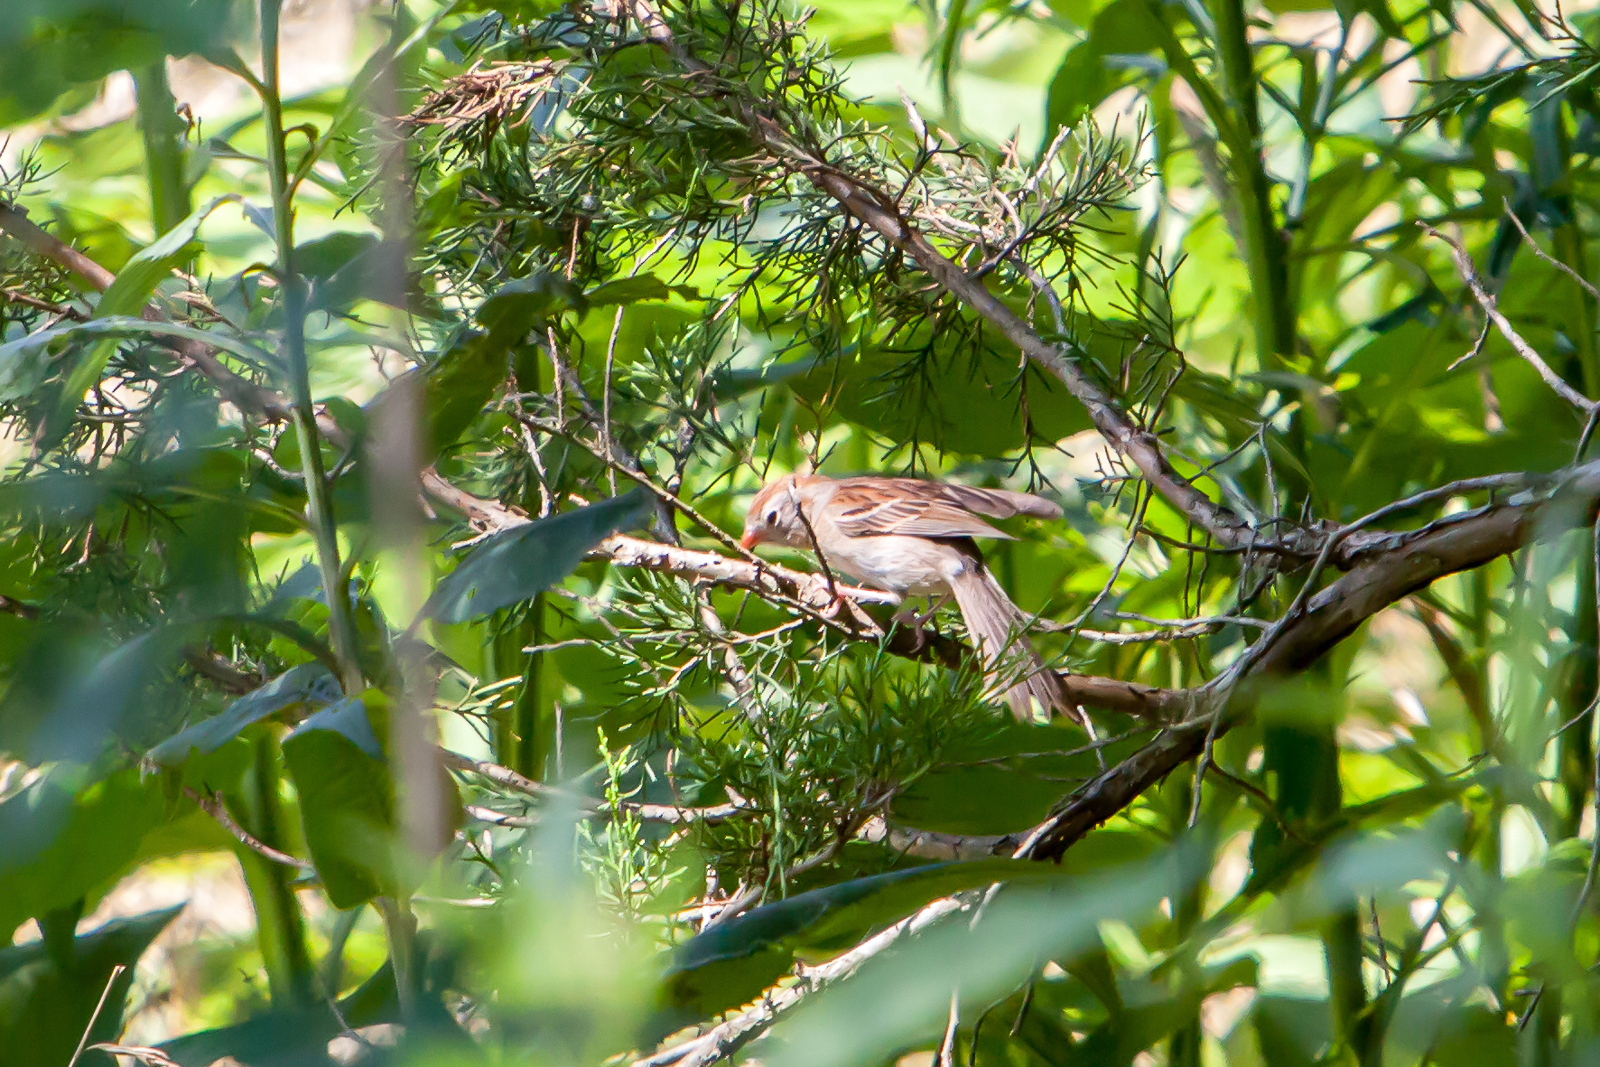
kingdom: Animalia
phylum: Chordata
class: Aves
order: Passeriformes
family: Passerellidae
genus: Spizella
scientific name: Spizella pusilla
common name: Field sparrow
